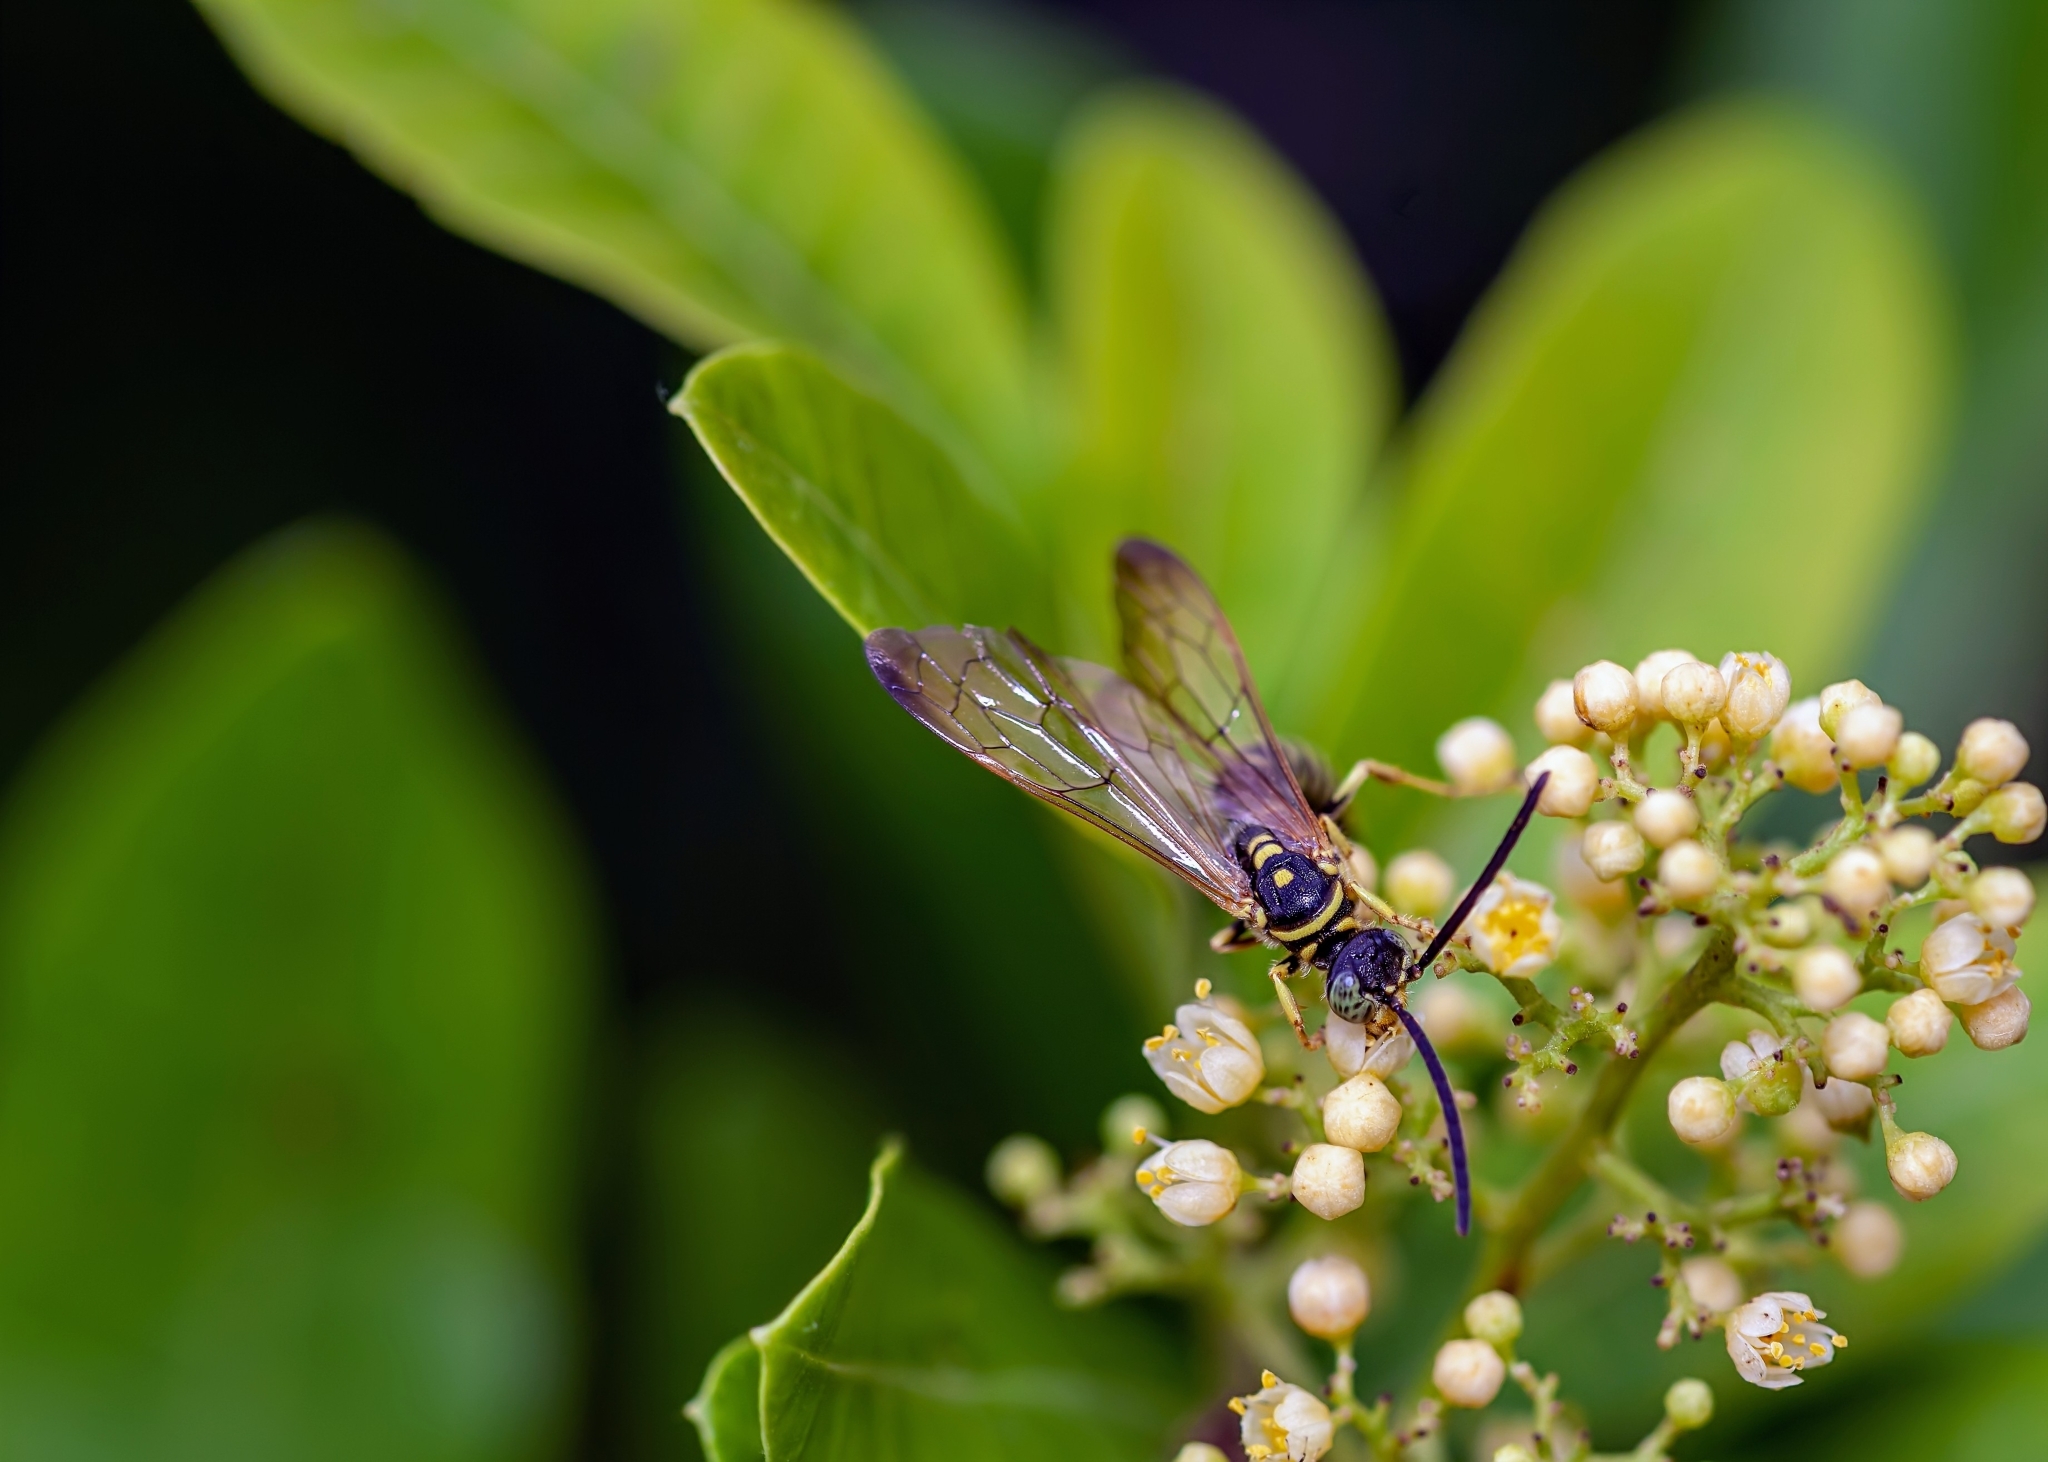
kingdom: Animalia
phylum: Arthropoda
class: Insecta
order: Hymenoptera
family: Tiphiidae
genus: Myzinum
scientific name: Myzinum
